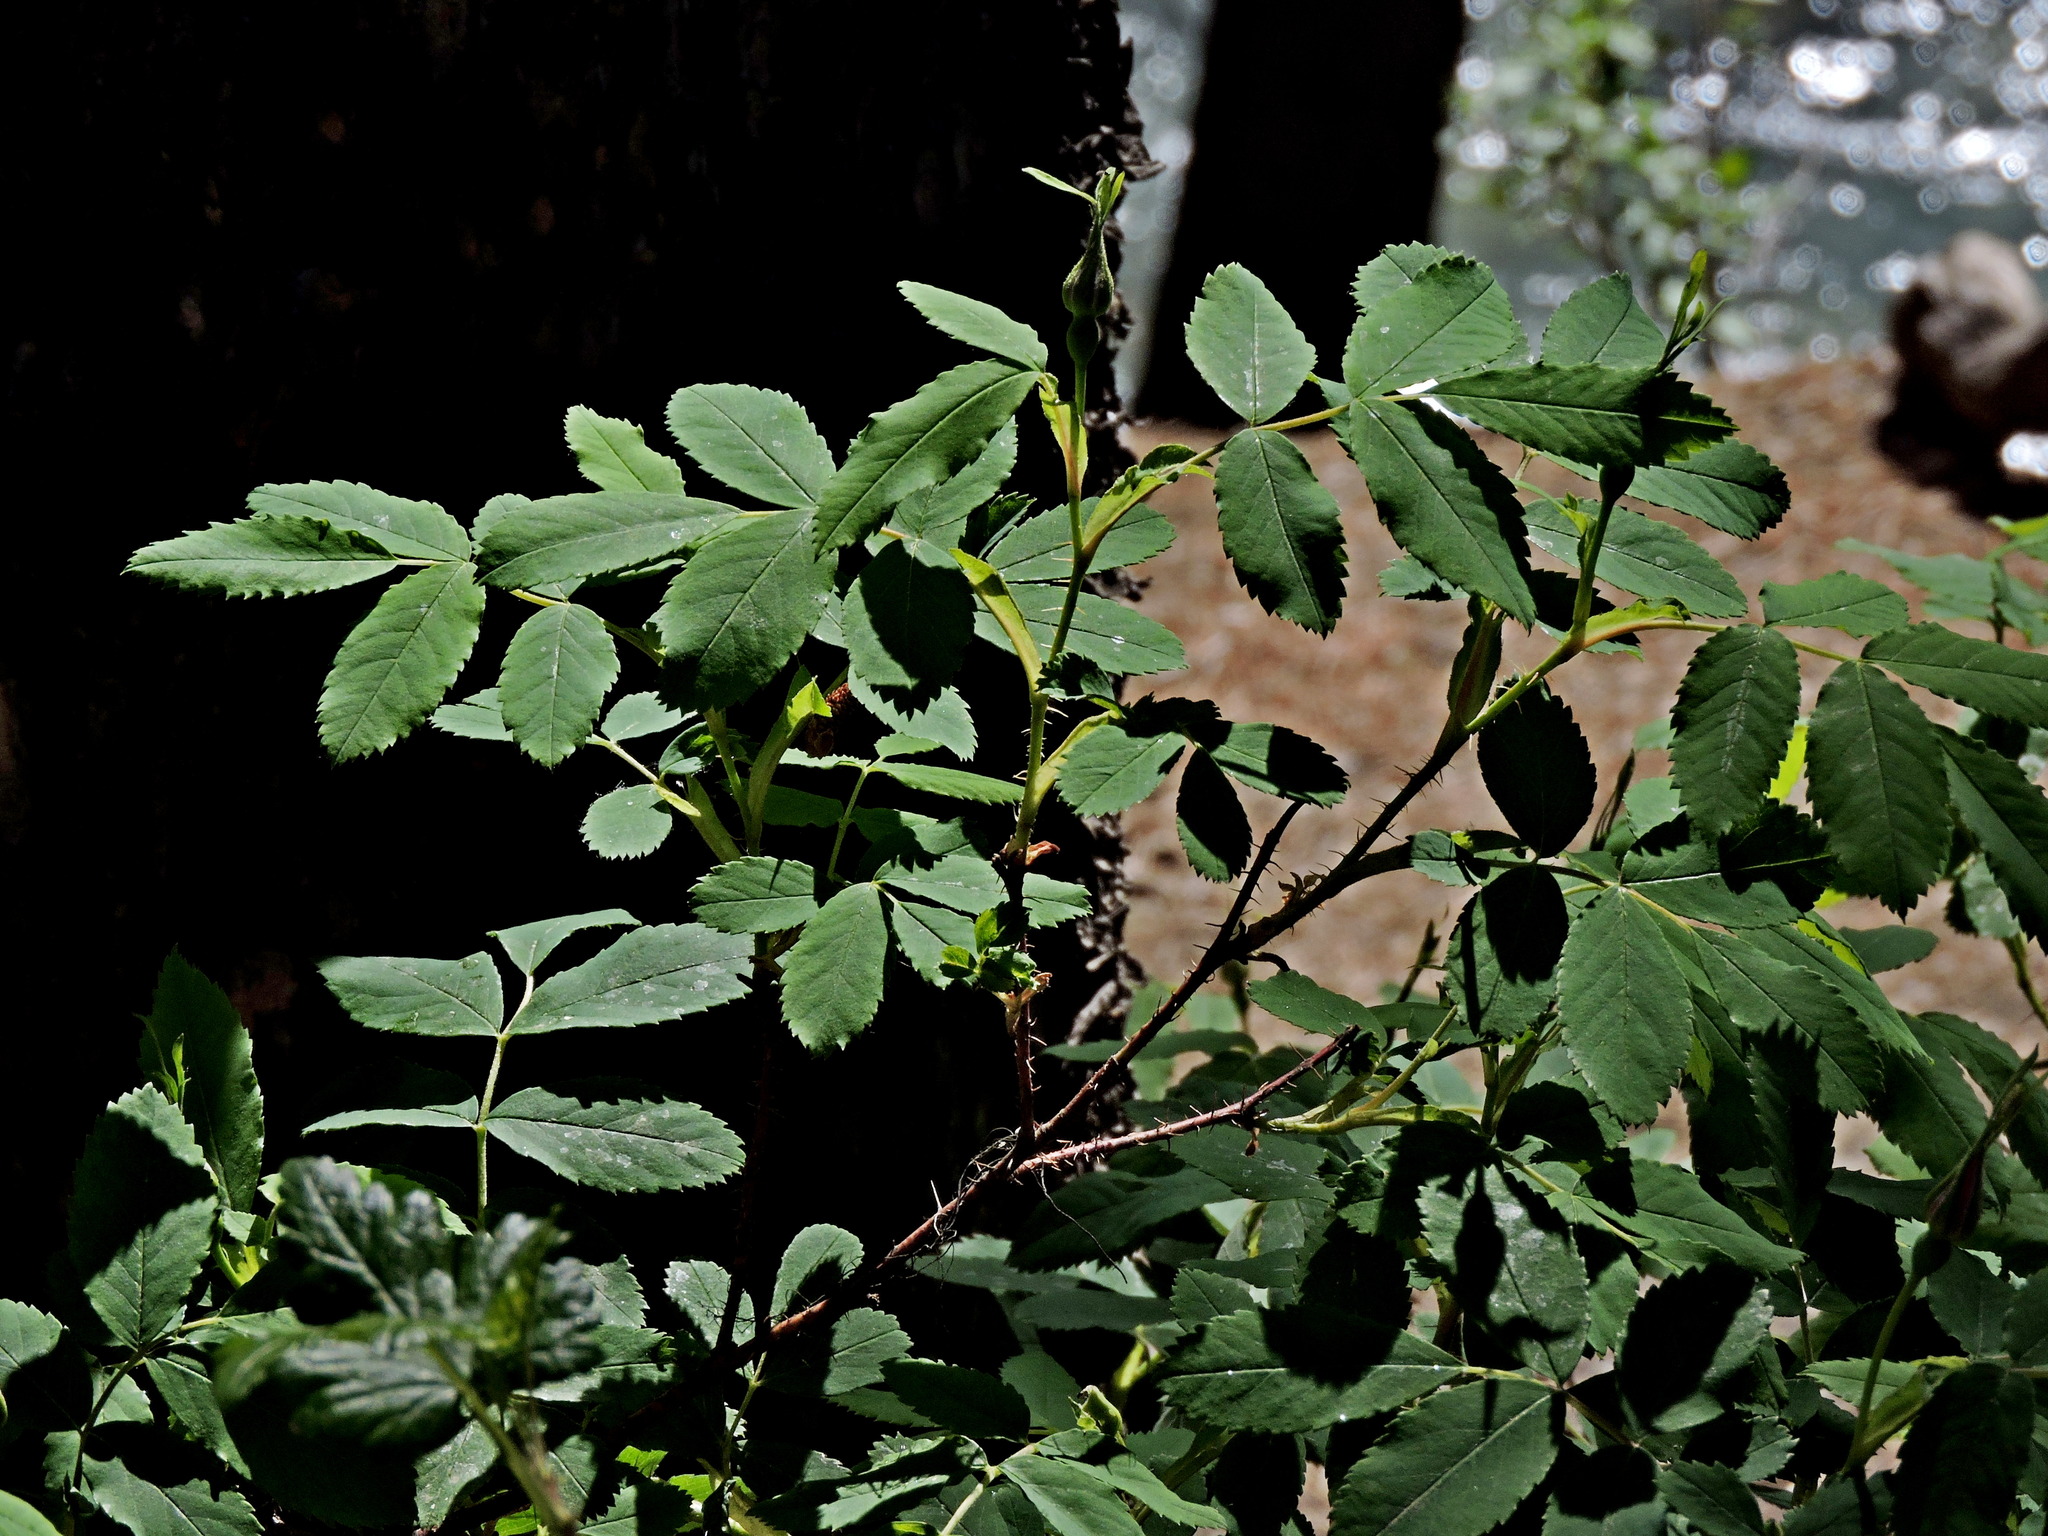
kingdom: Plantae
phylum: Tracheophyta
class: Magnoliopsida
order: Rosales
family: Rosaceae
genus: Rosa
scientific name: Rosa acicularis
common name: Prickly rose
